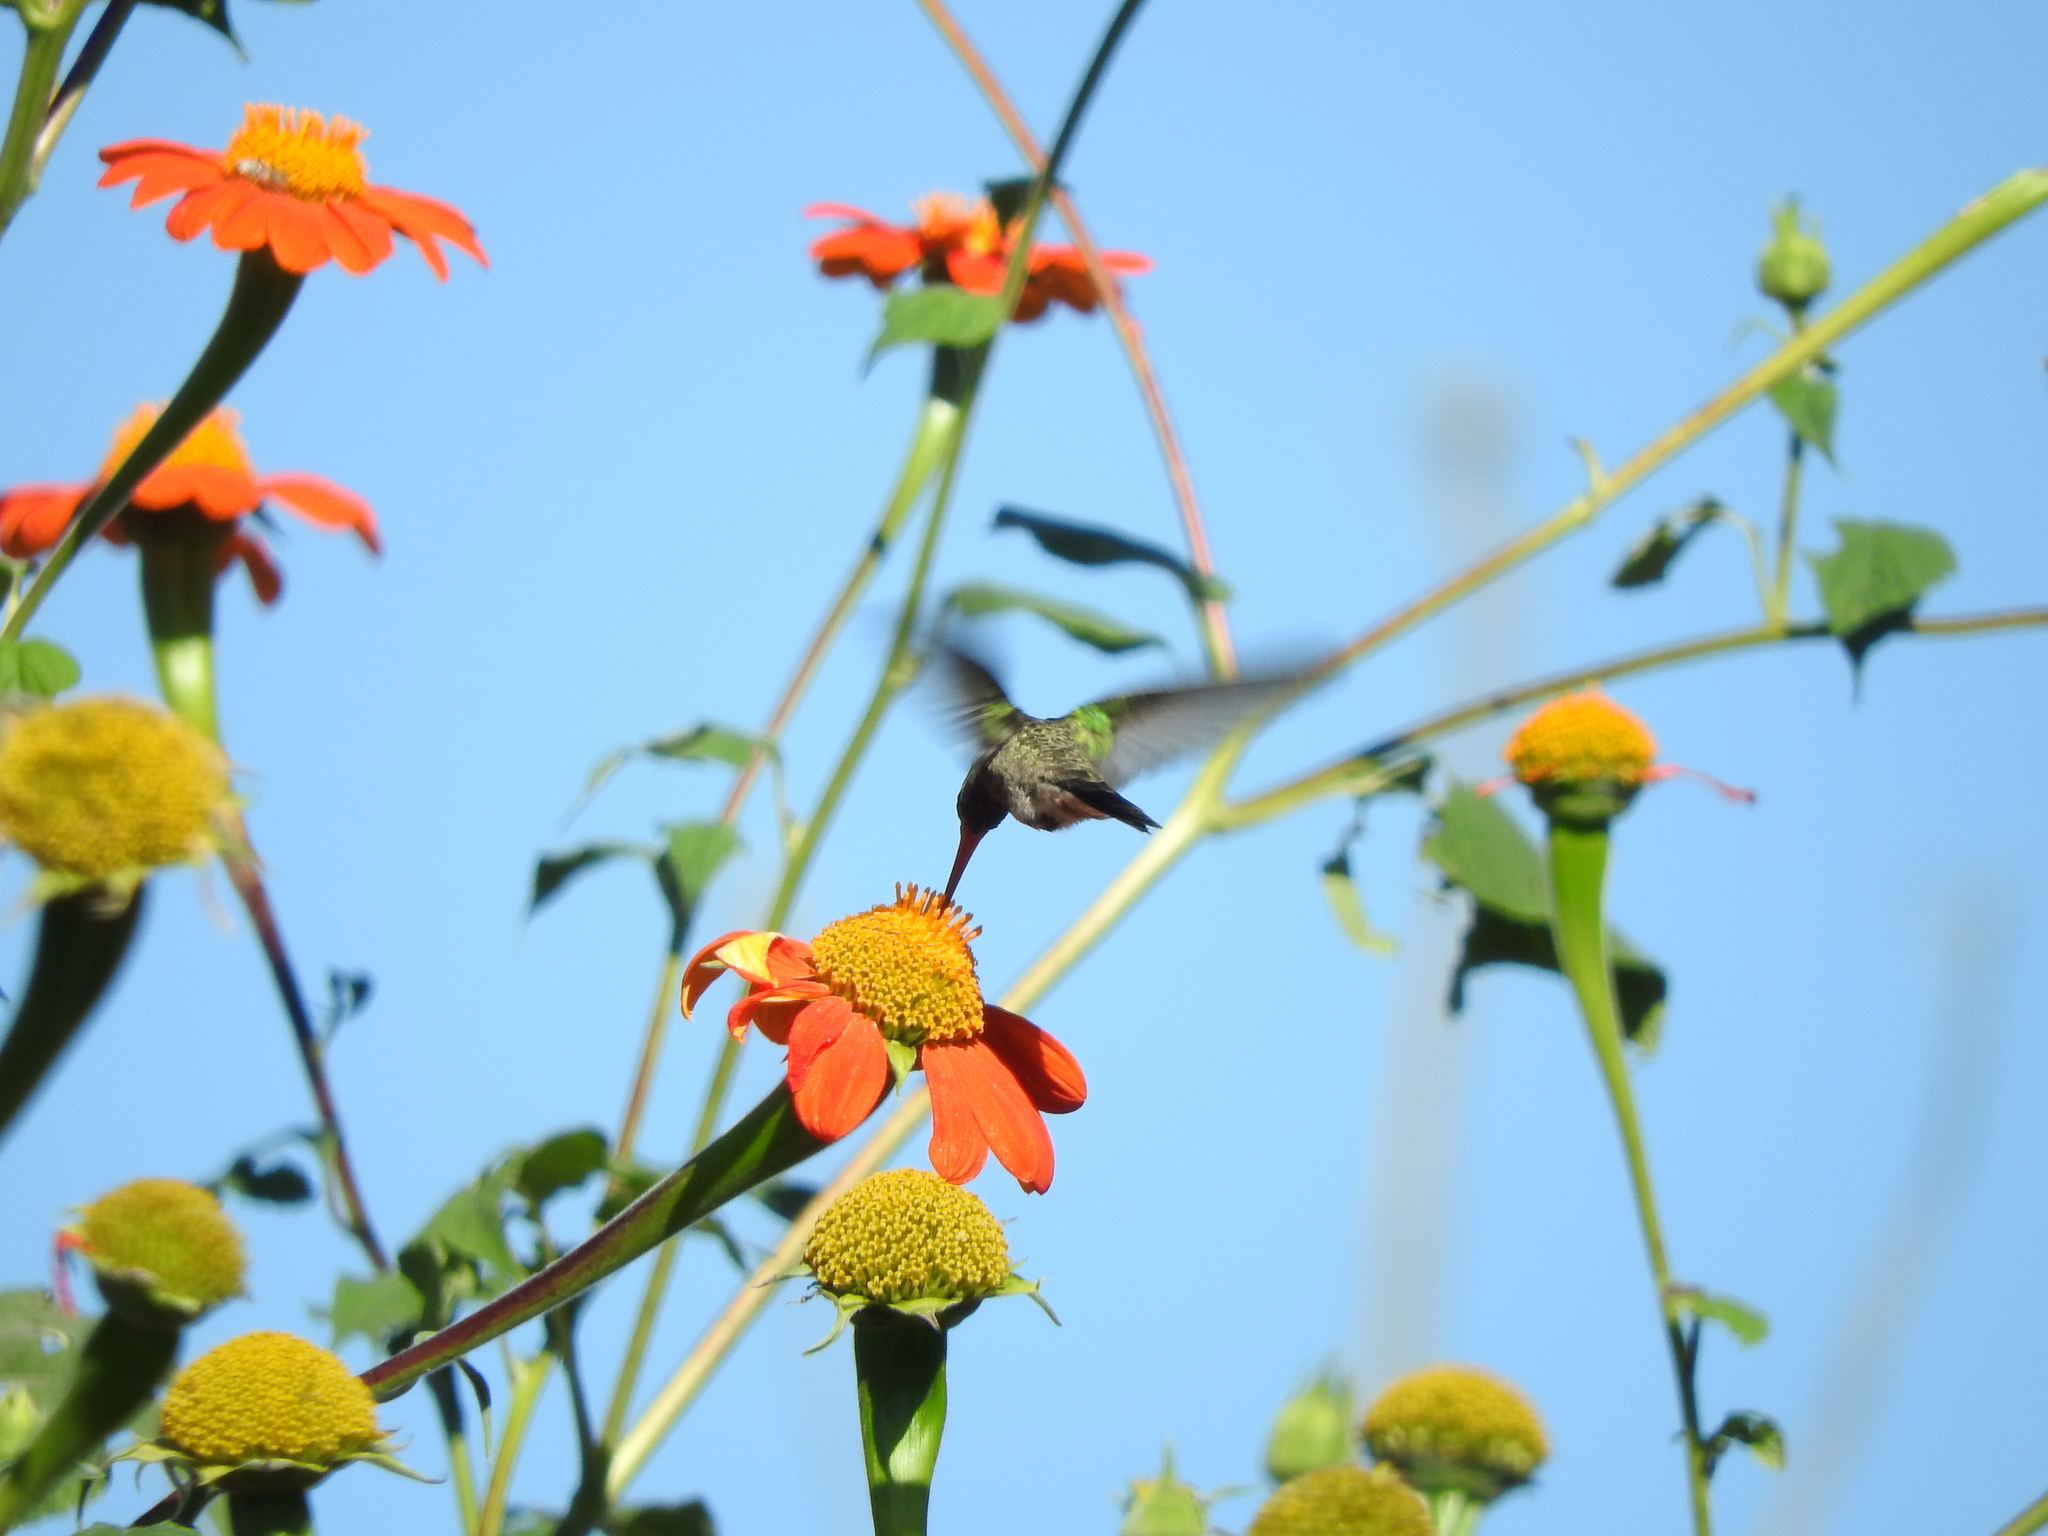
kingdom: Animalia
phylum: Chordata
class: Aves
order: Apodiformes
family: Trochilidae
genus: Cynanthus
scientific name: Cynanthus latirostris
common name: Broad-billed hummingbird
